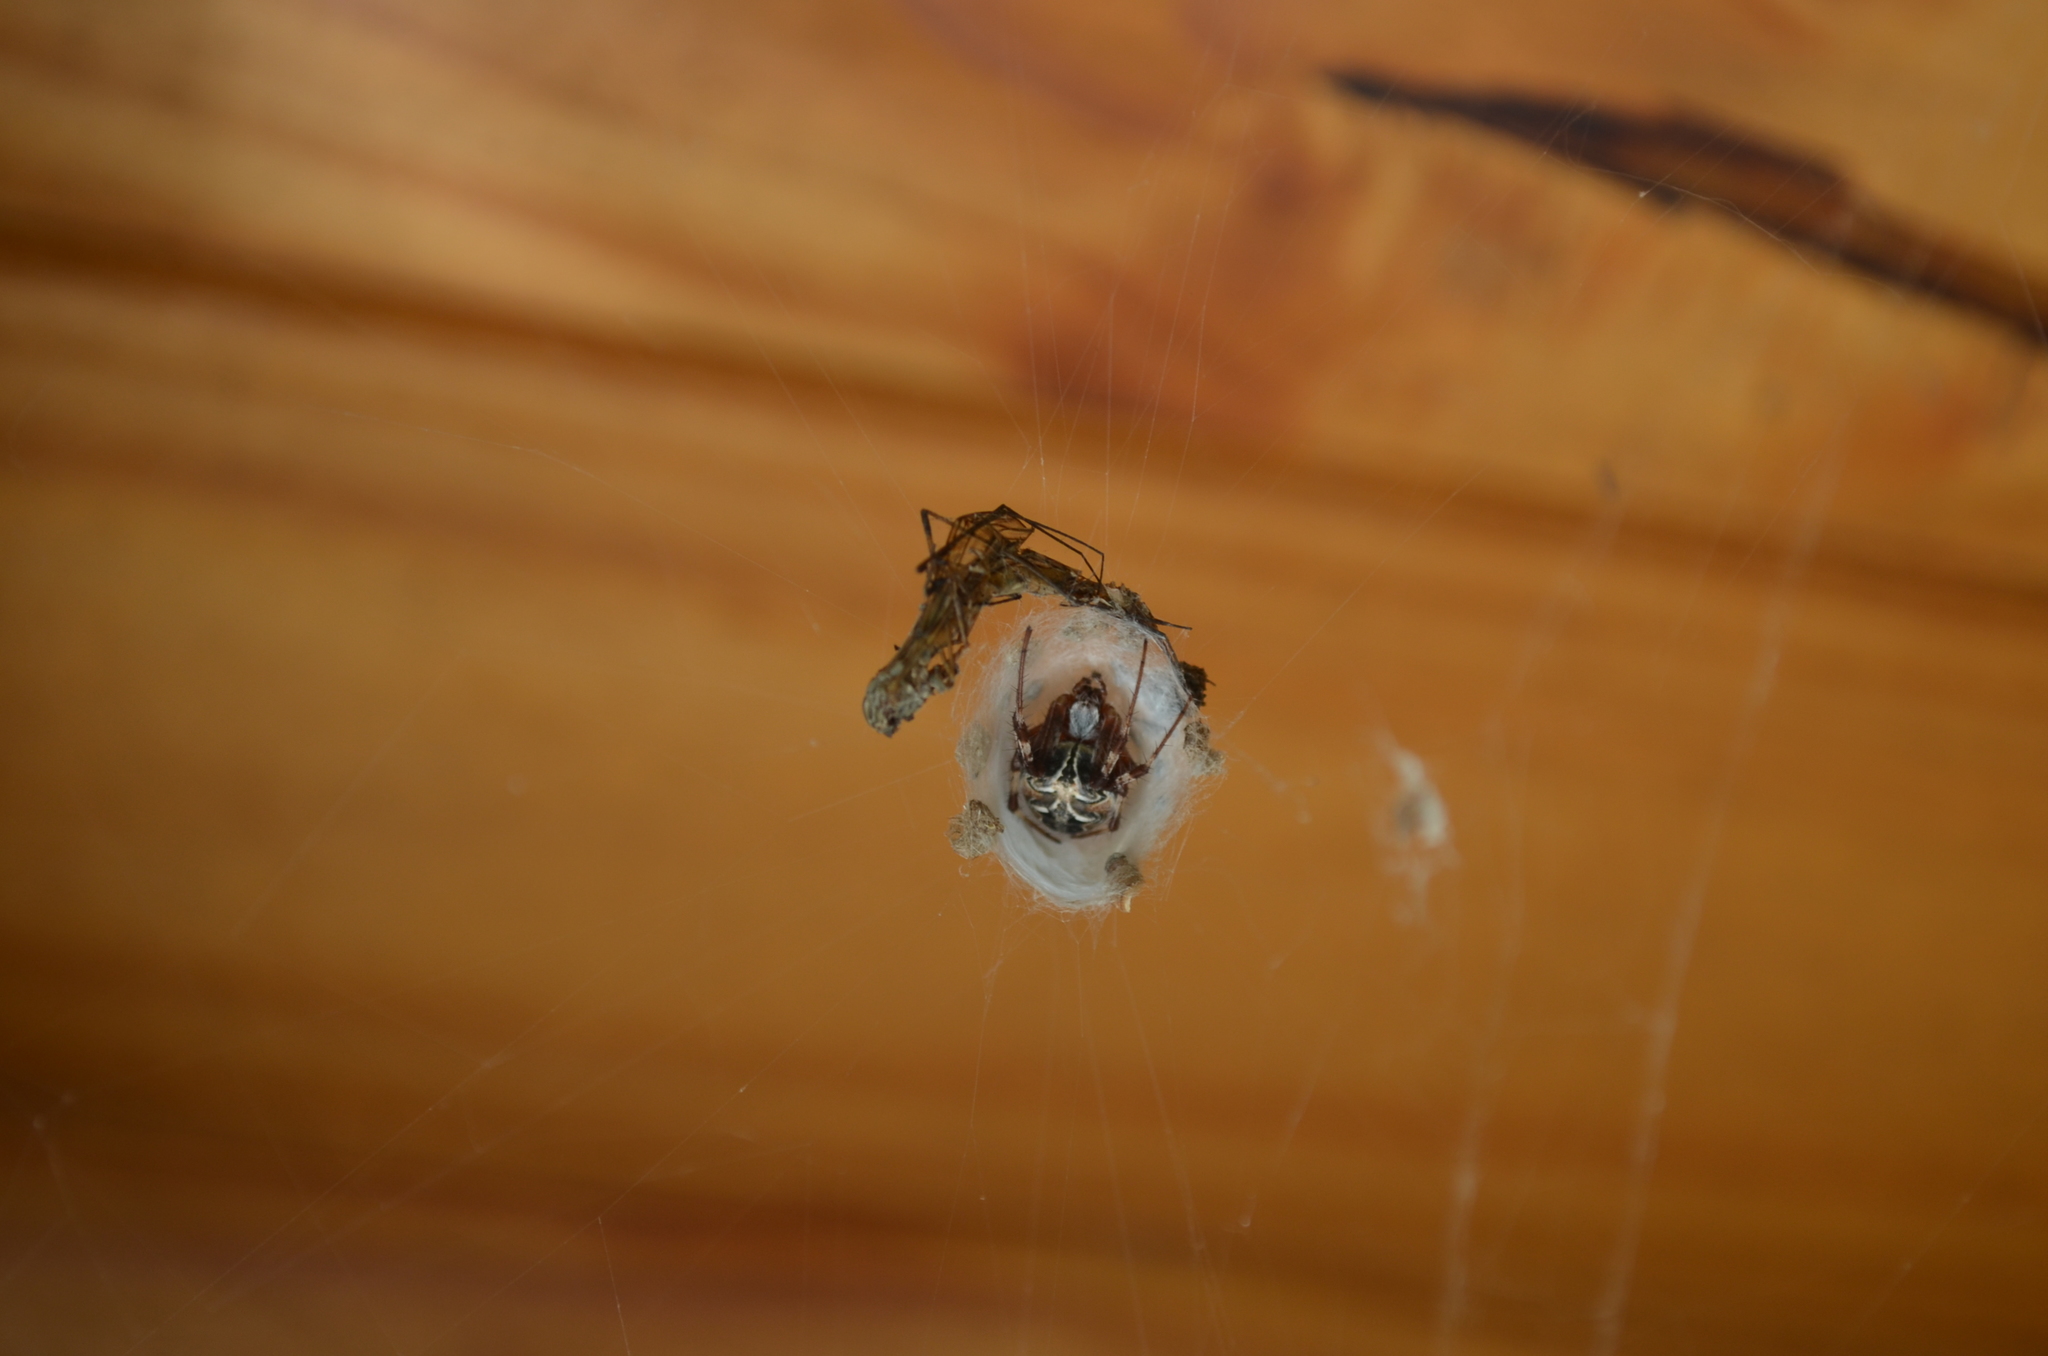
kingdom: Animalia
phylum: Arthropoda
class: Arachnida
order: Araneae
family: Araneidae
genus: Metepeira
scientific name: Metepeira
